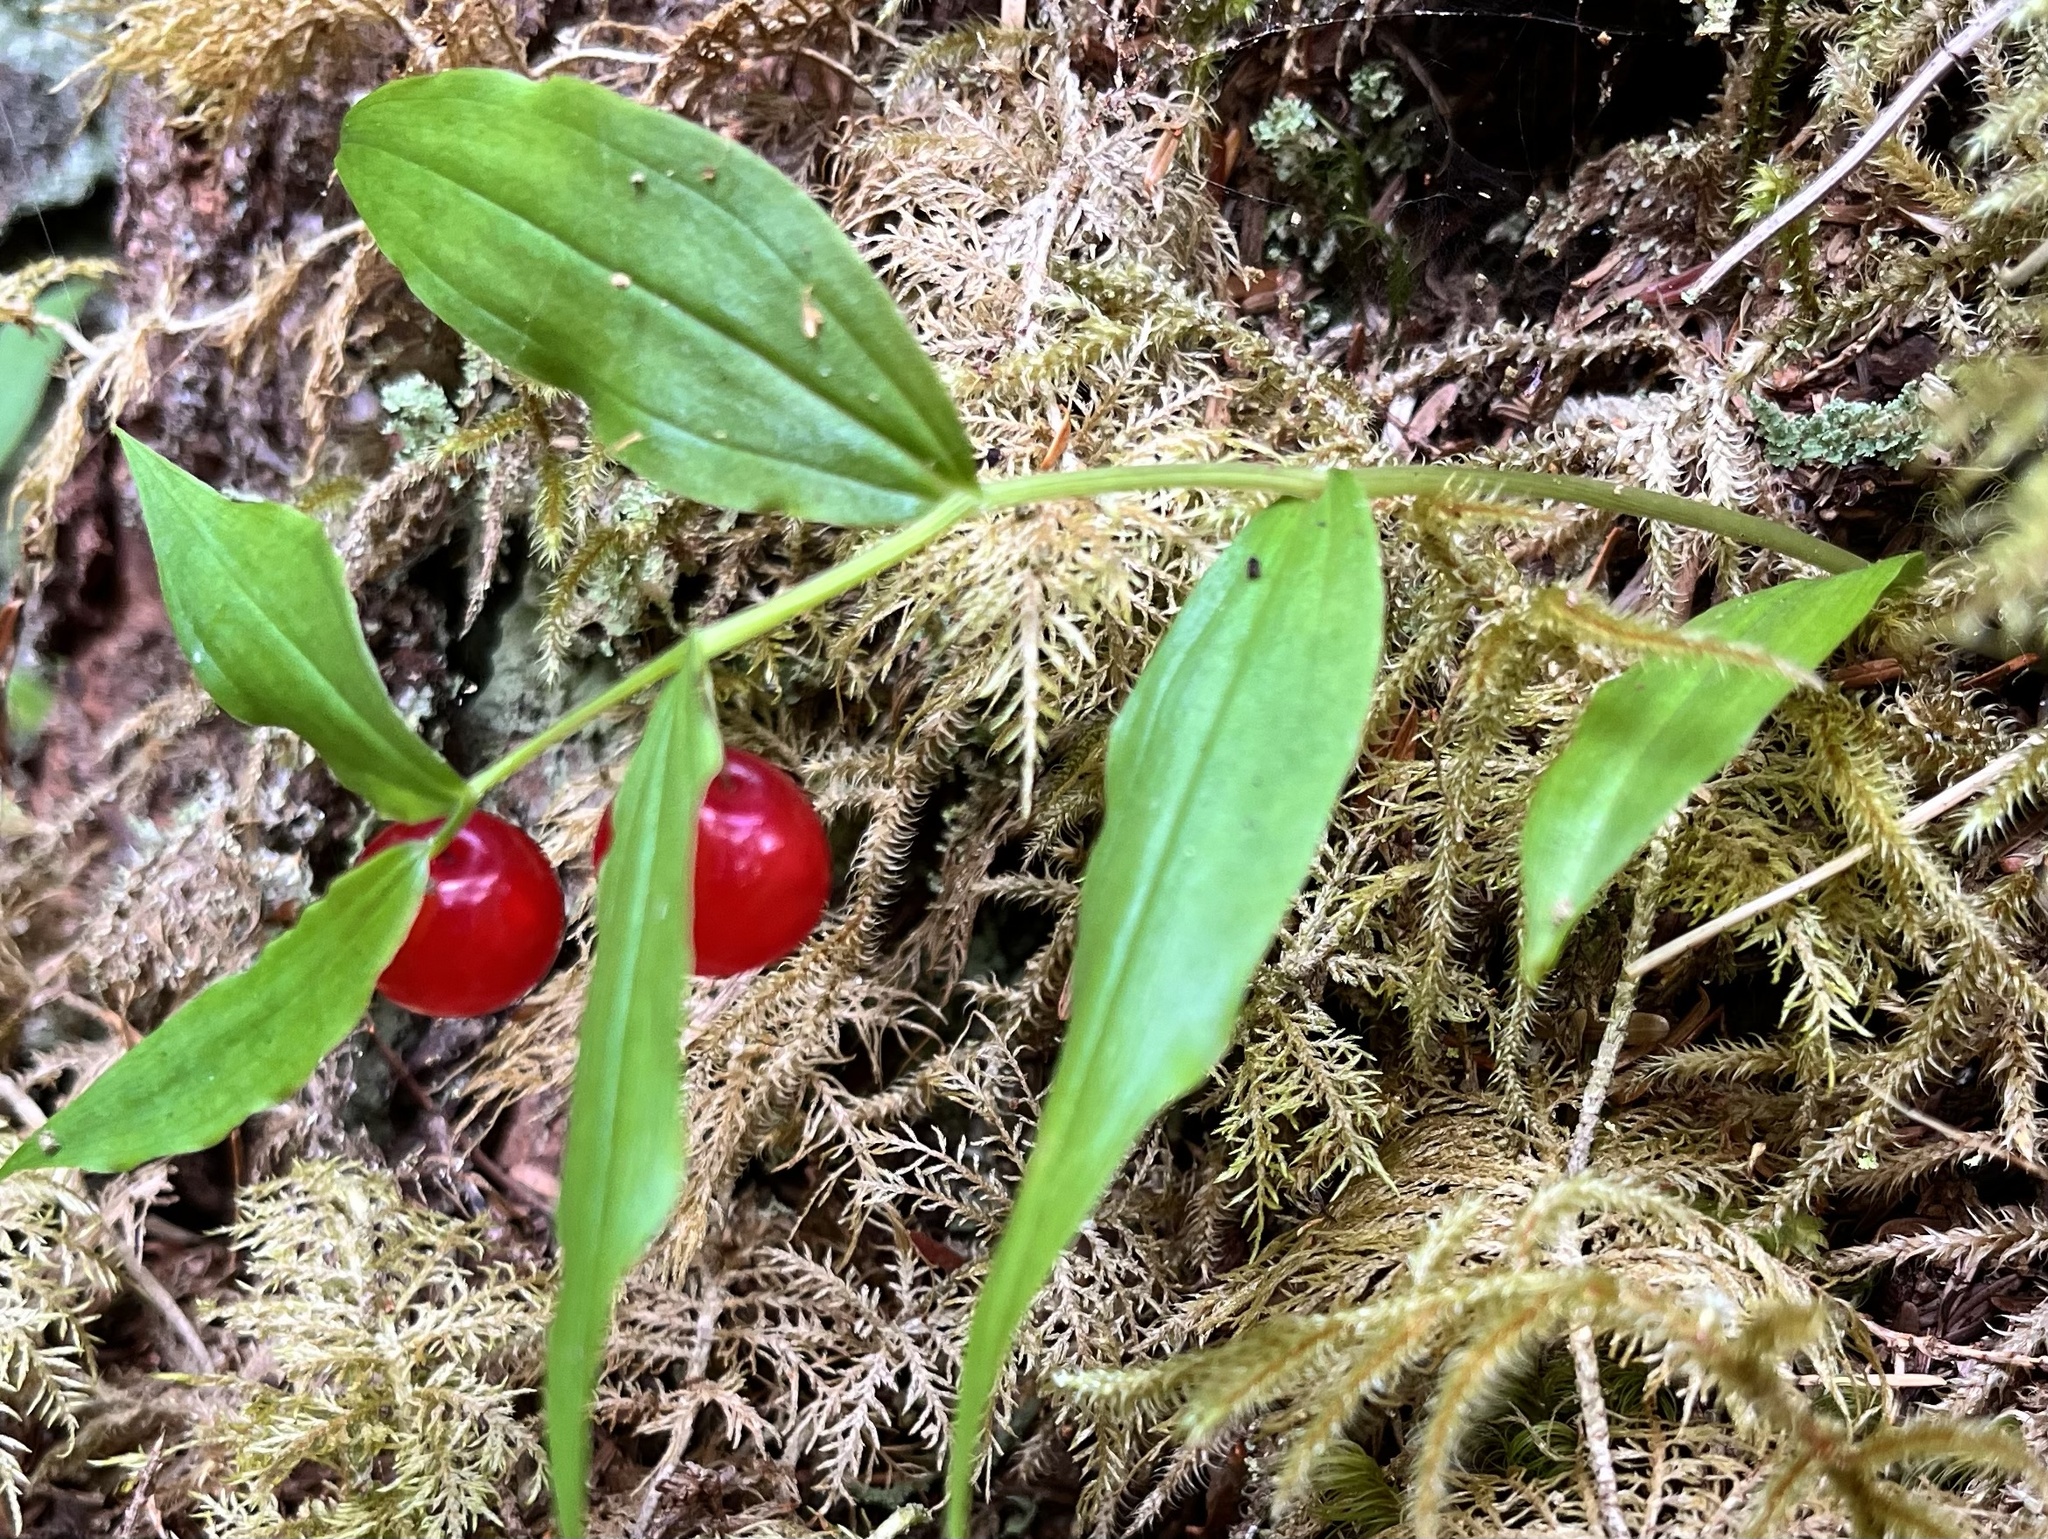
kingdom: Plantae
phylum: Tracheophyta
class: Liliopsida
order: Liliales
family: Liliaceae
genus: Streptopus
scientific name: Streptopus streptopoides
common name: Small twisted-stalk
